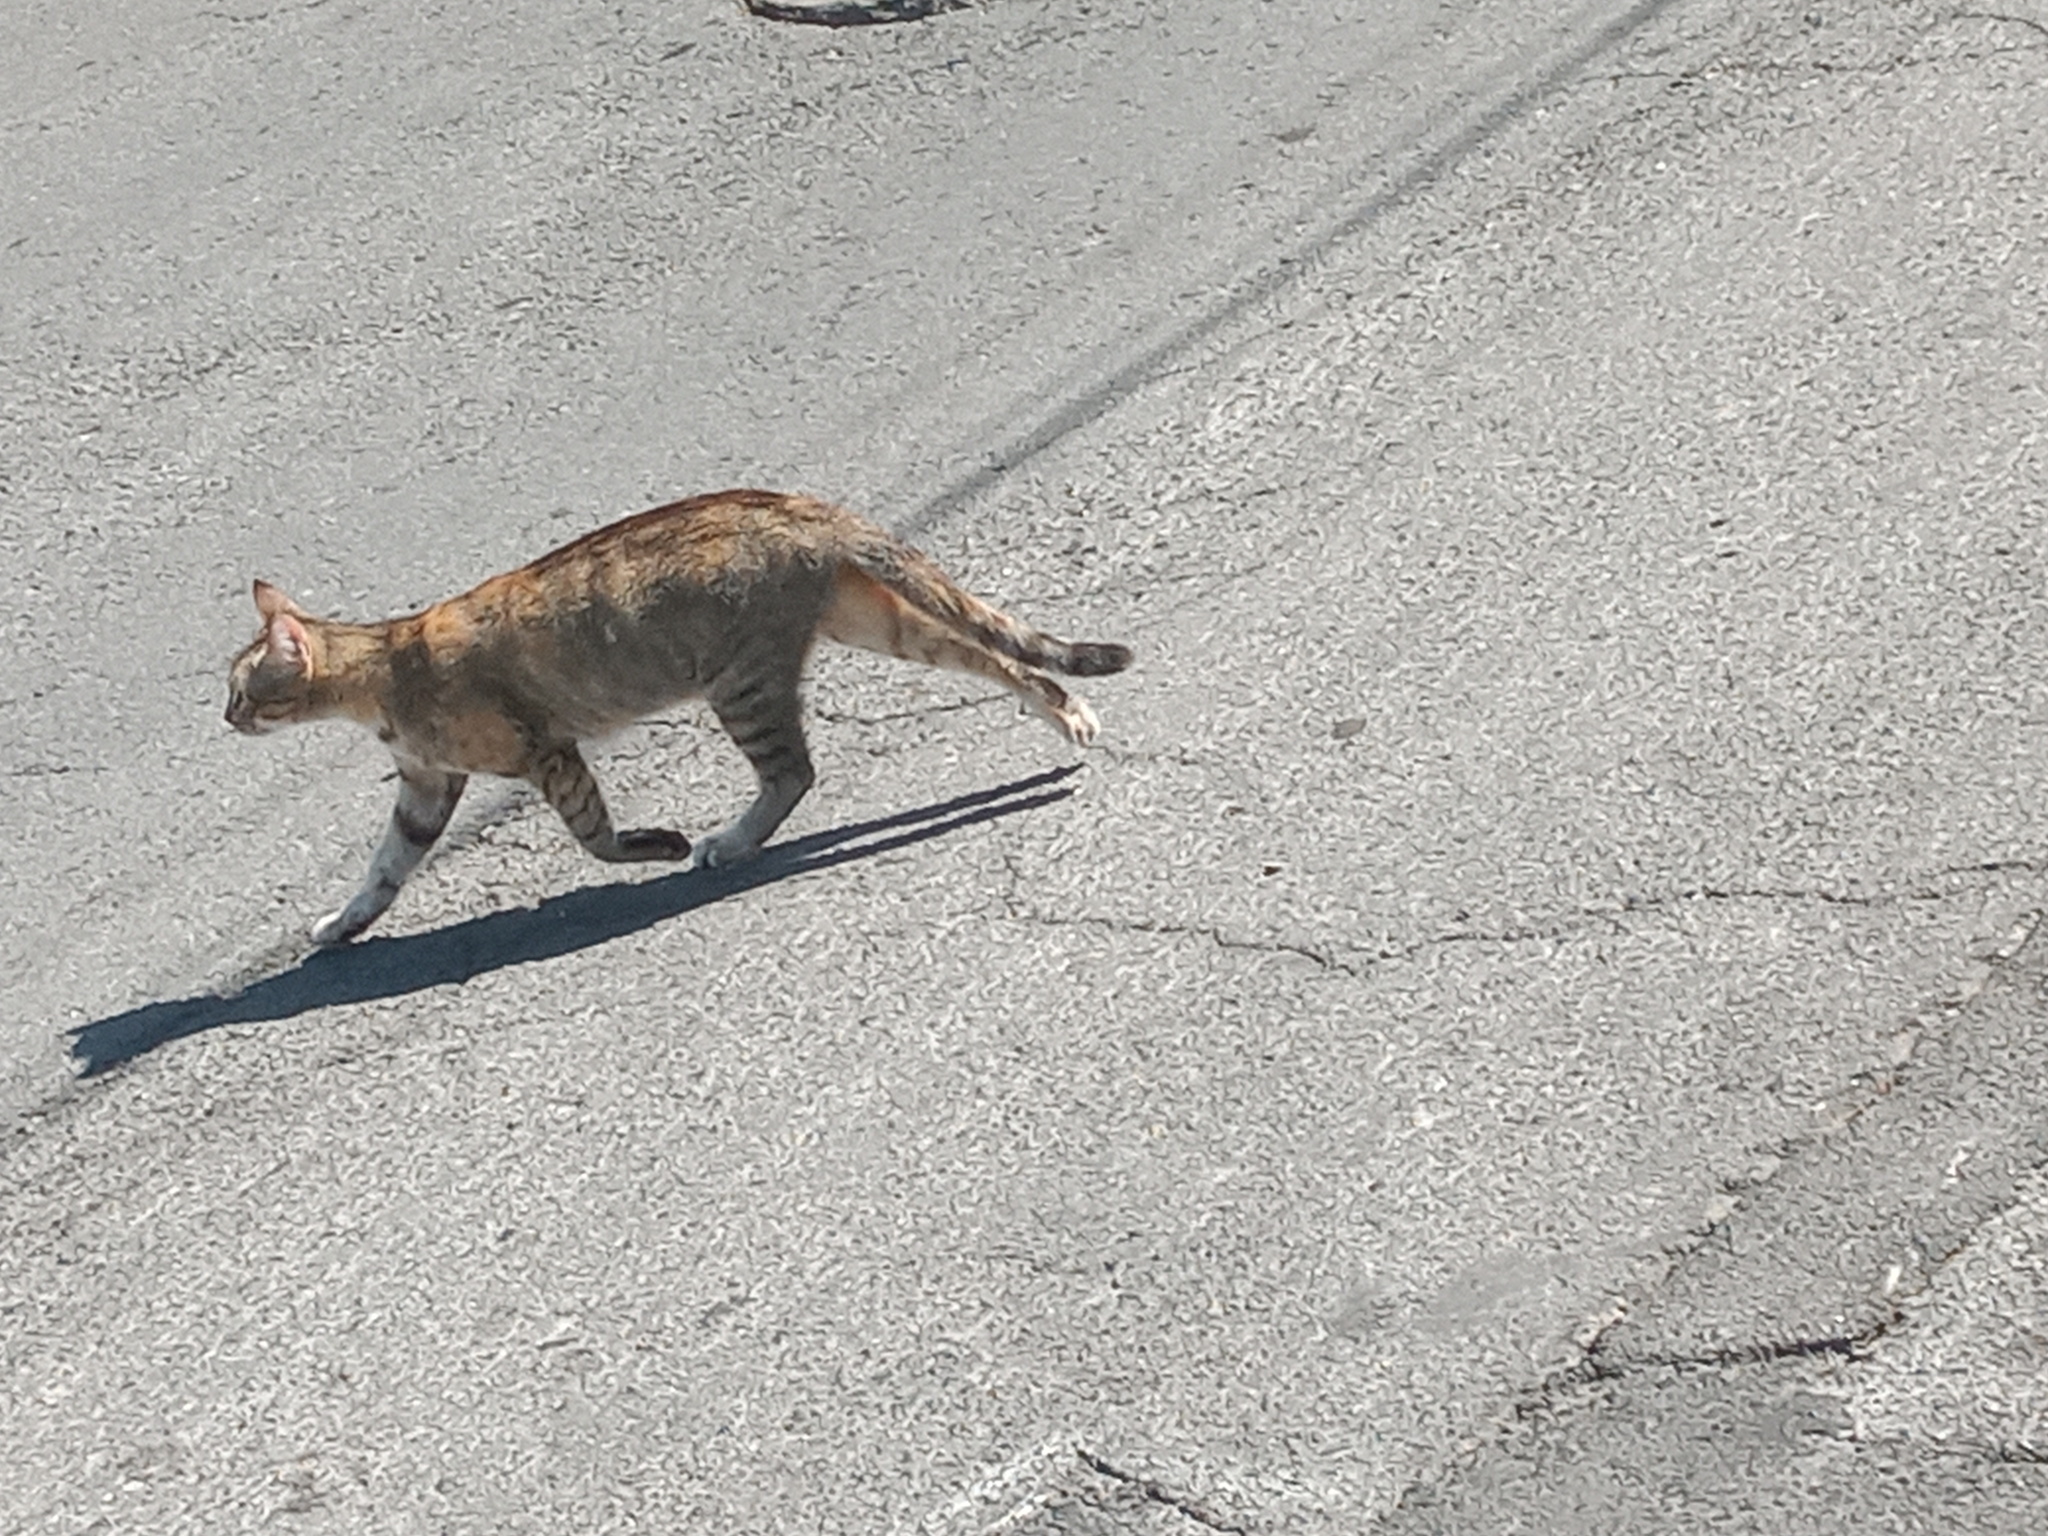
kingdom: Animalia
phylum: Chordata
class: Mammalia
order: Carnivora
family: Felidae
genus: Felis
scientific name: Felis catus
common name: Domestic cat
